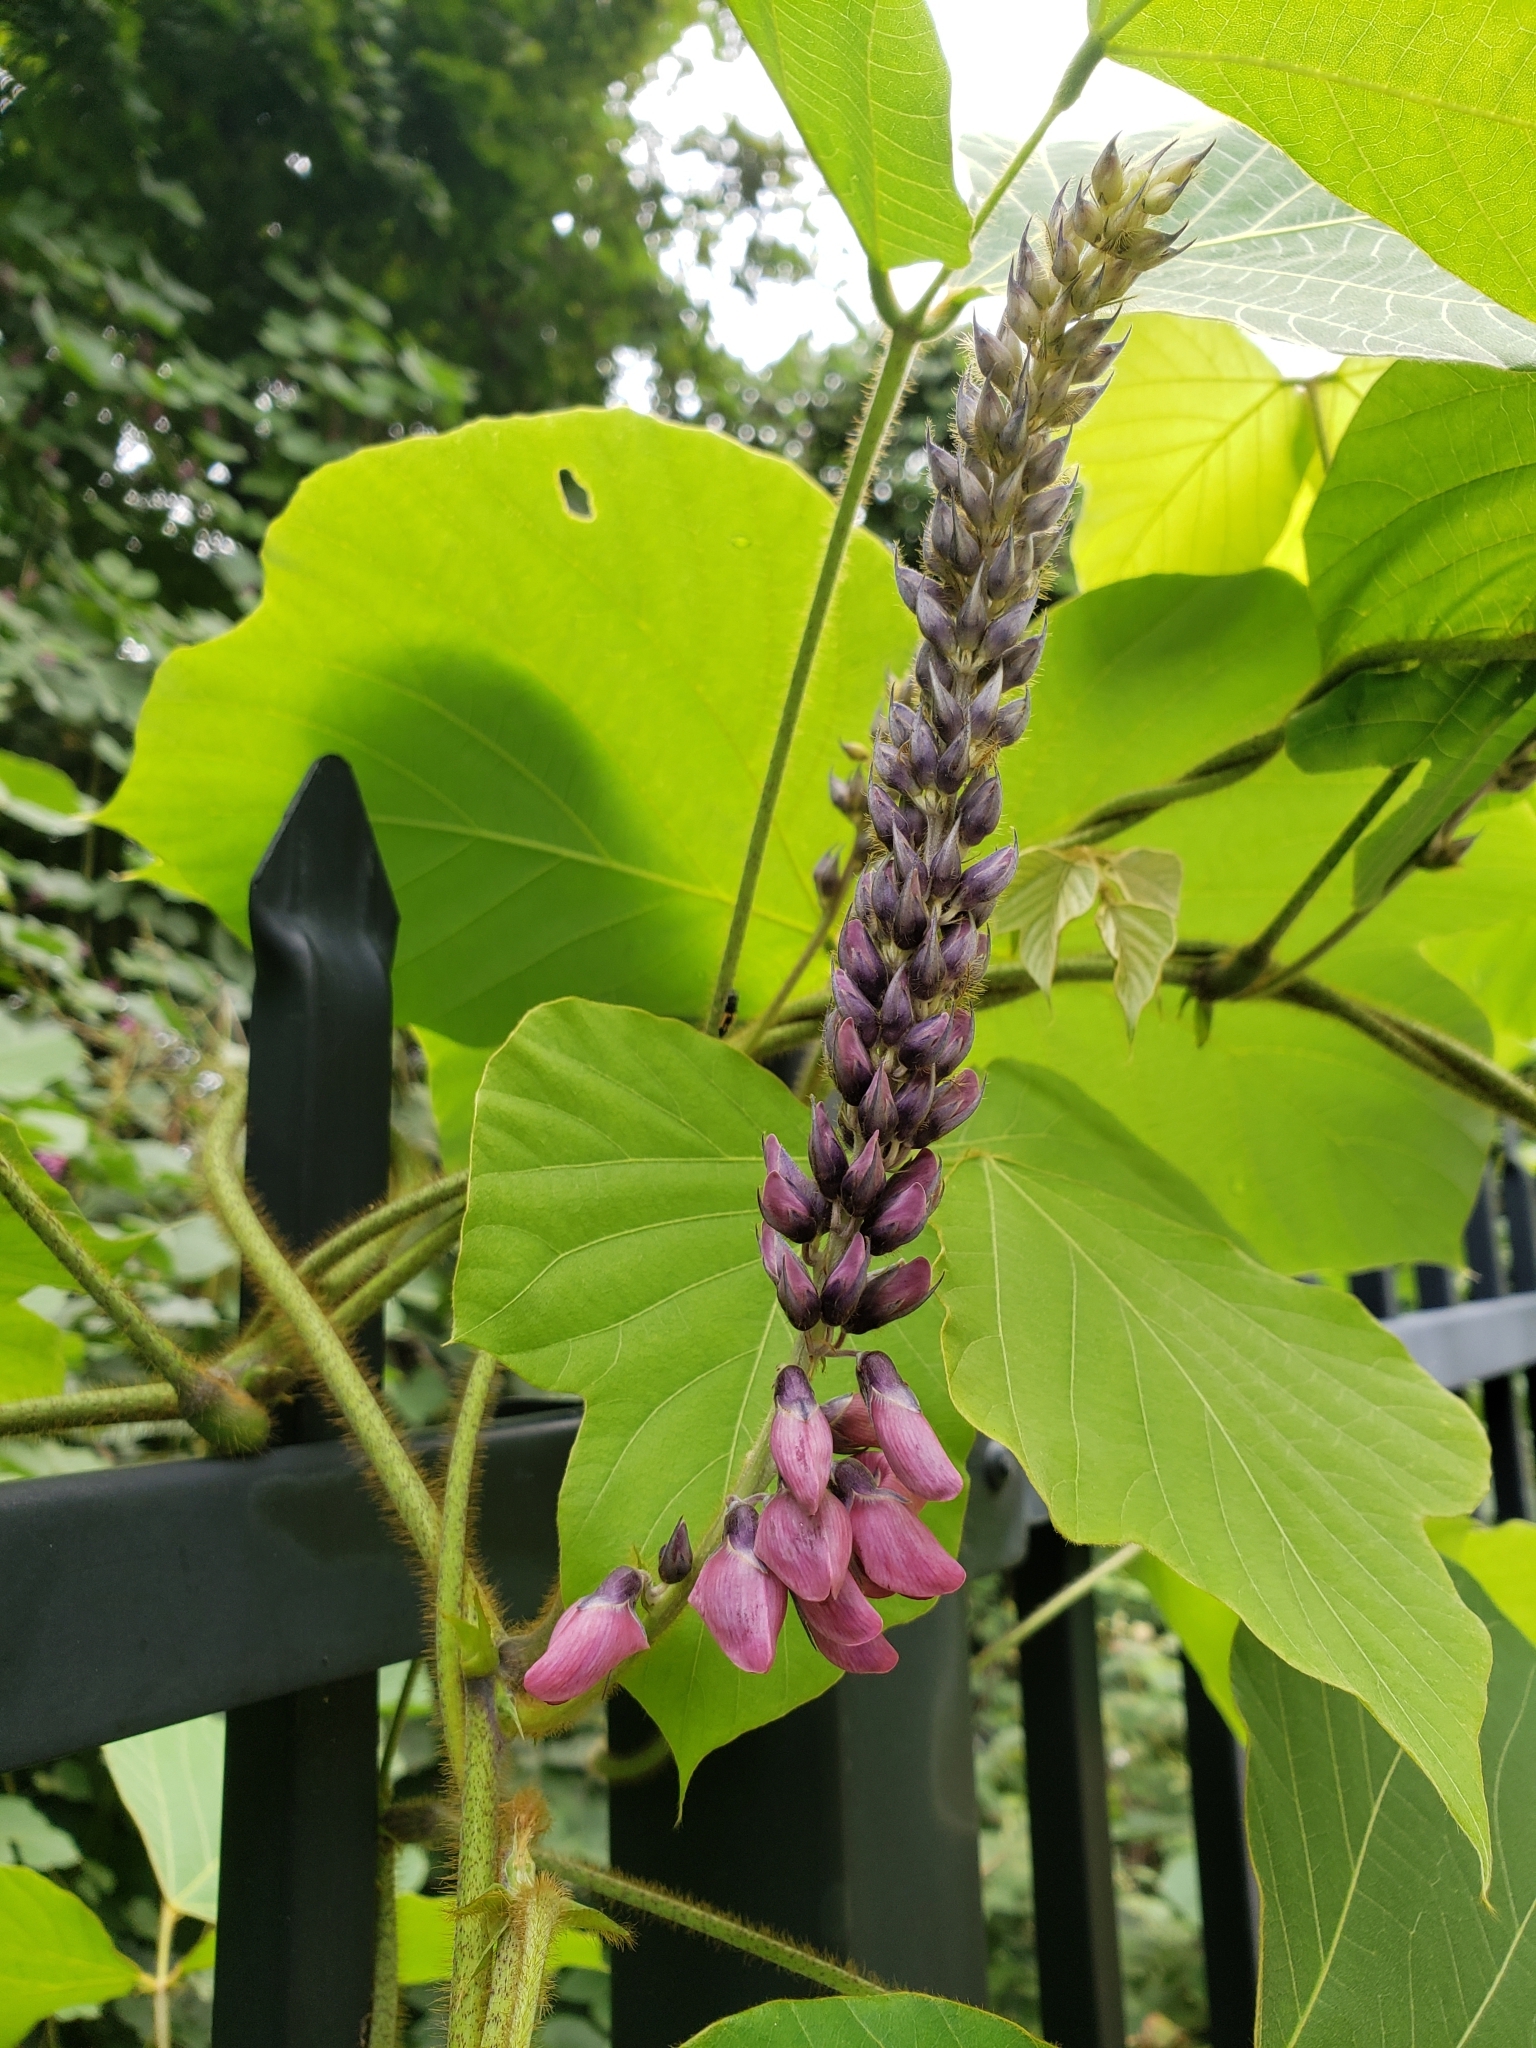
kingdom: Plantae
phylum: Tracheophyta
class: Magnoliopsida
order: Fabales
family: Fabaceae
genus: Pueraria
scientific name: Pueraria montana
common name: Kudzu
